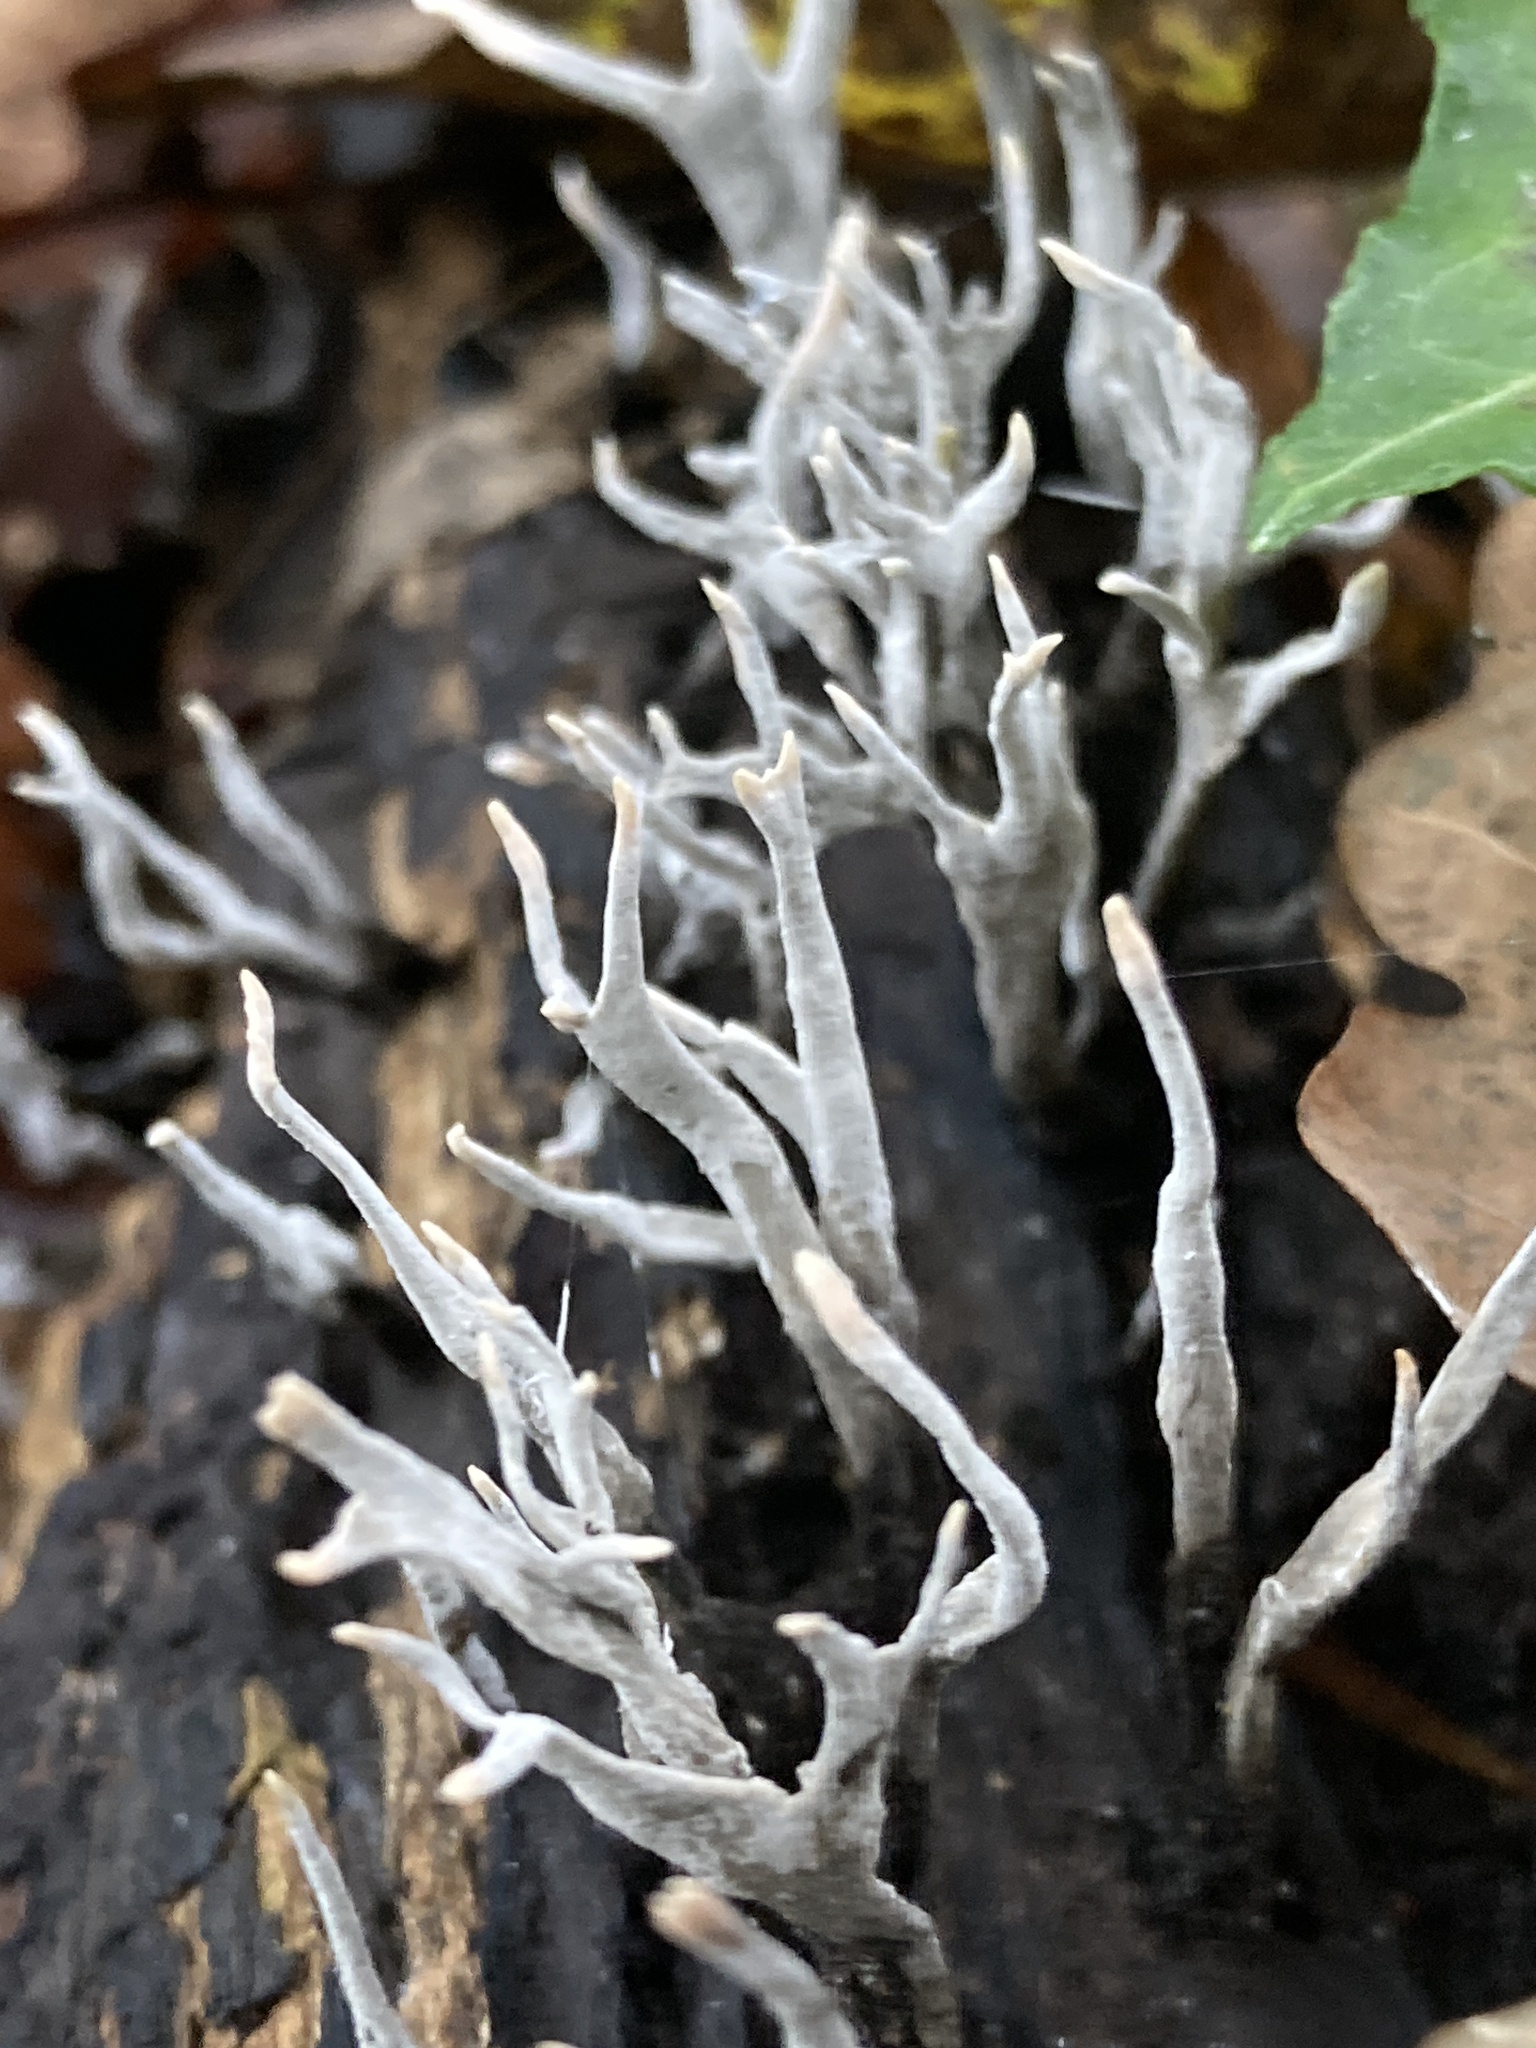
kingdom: Fungi
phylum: Ascomycota
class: Sordariomycetes
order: Xylariales
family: Xylariaceae
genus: Xylaria
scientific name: Xylaria hypoxylon
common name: Candle-snuff fungus
